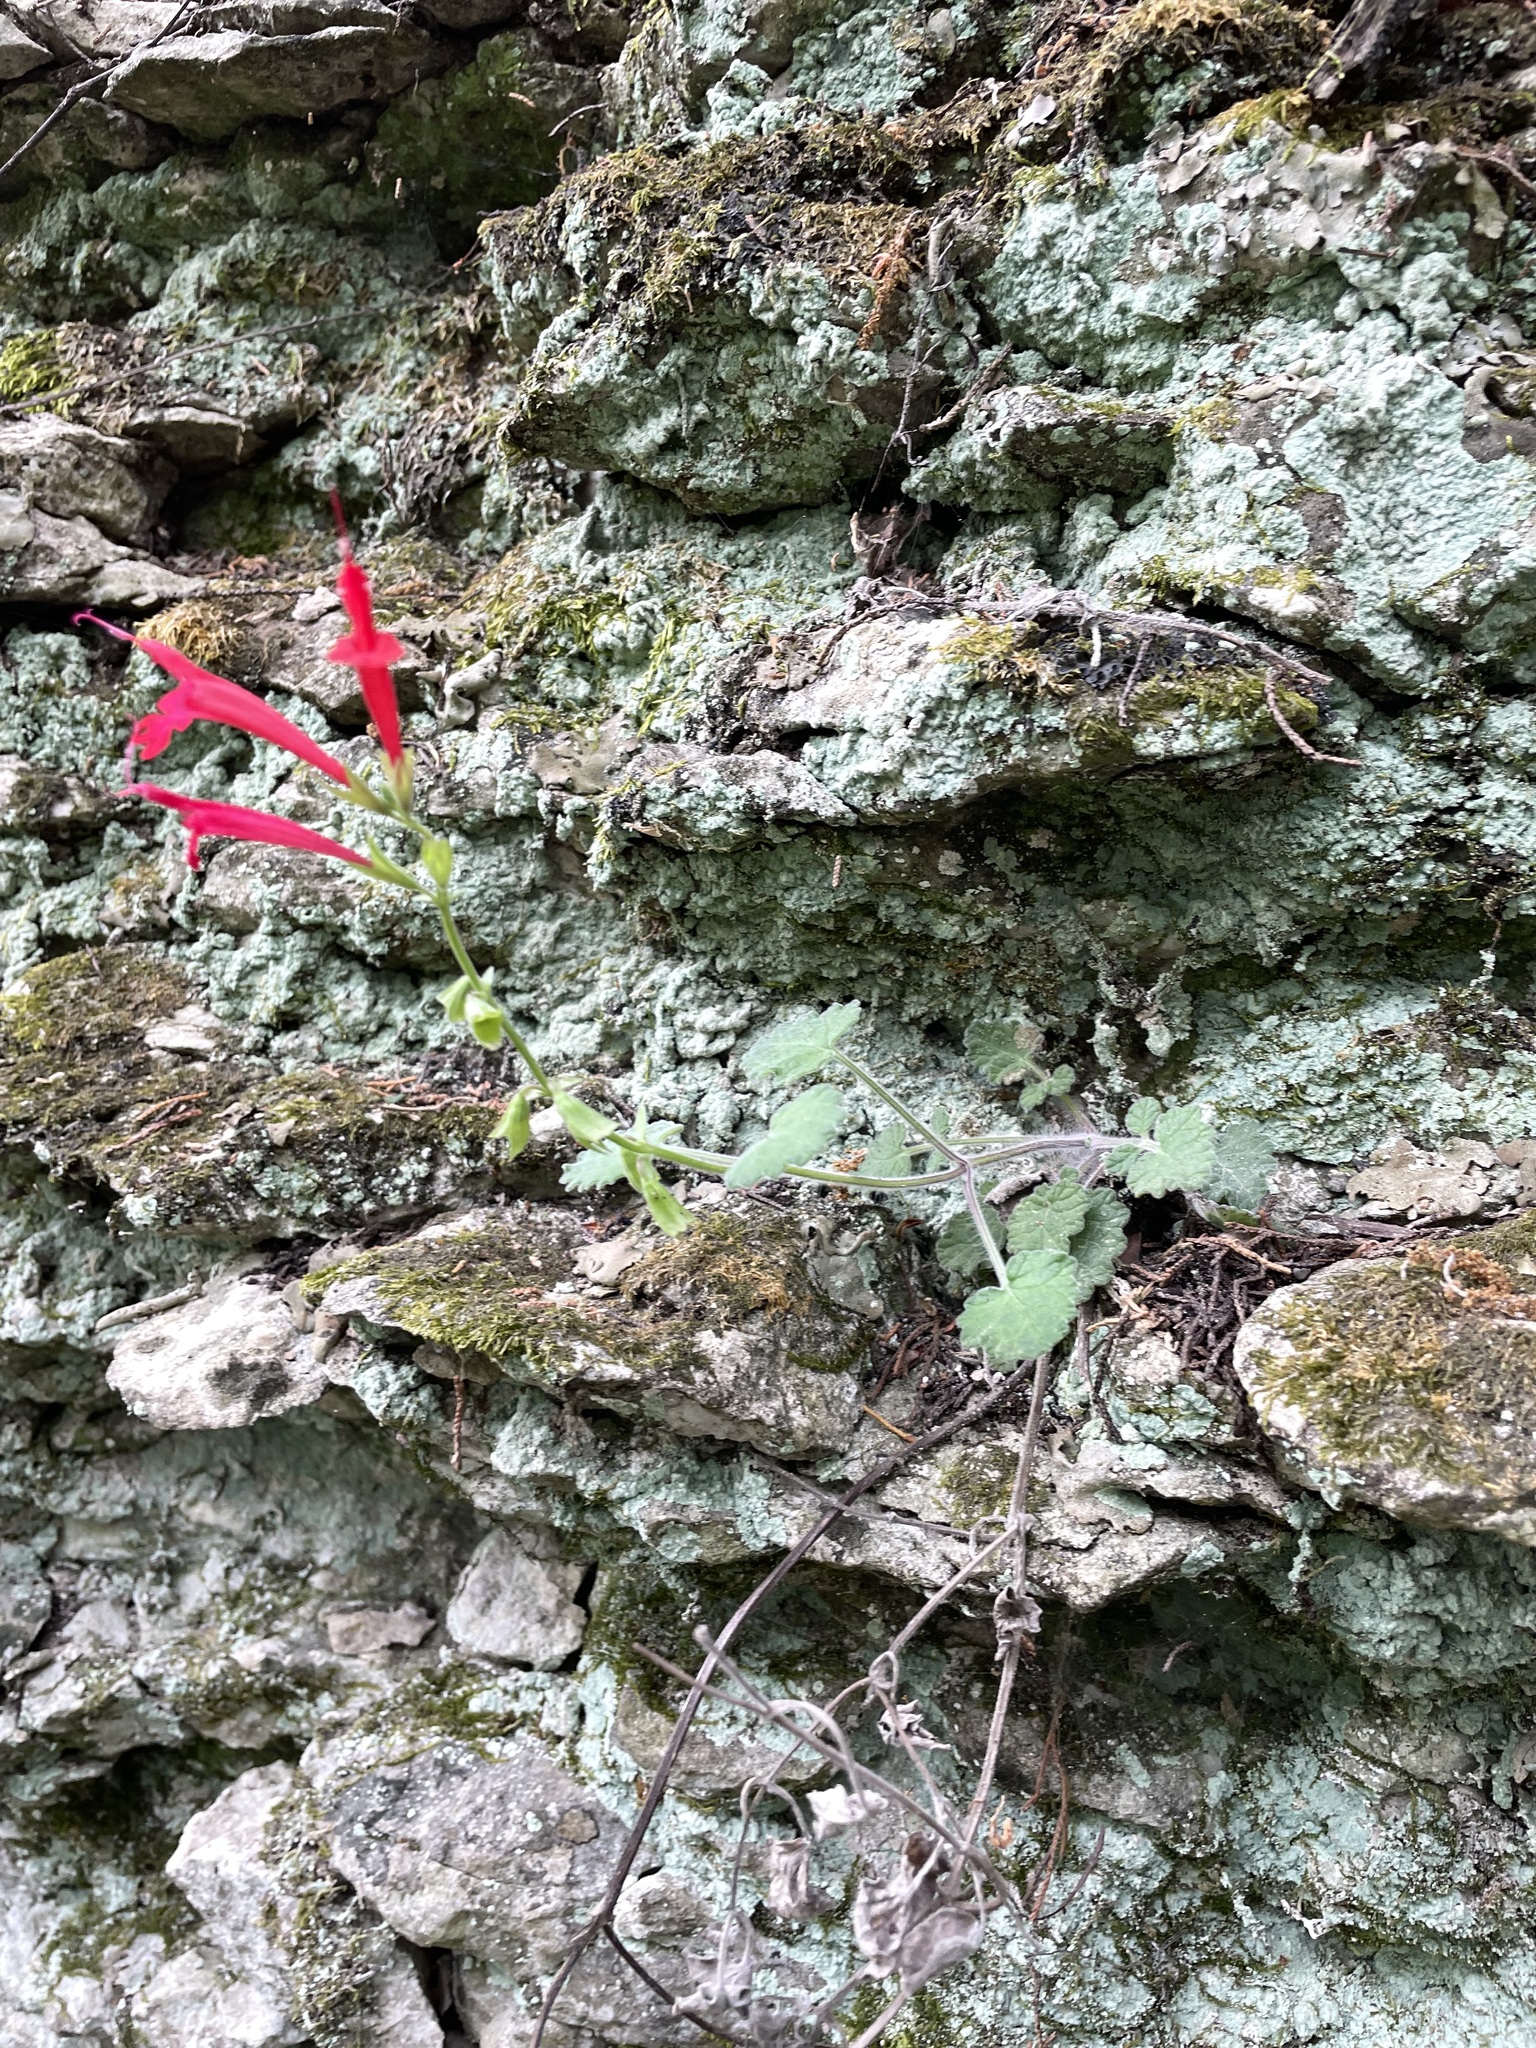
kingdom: Plantae
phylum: Tracheophyta
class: Magnoliopsida
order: Lamiales
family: Lamiaceae
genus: Salvia
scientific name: Salvia roemeriana
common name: Cedar sage
